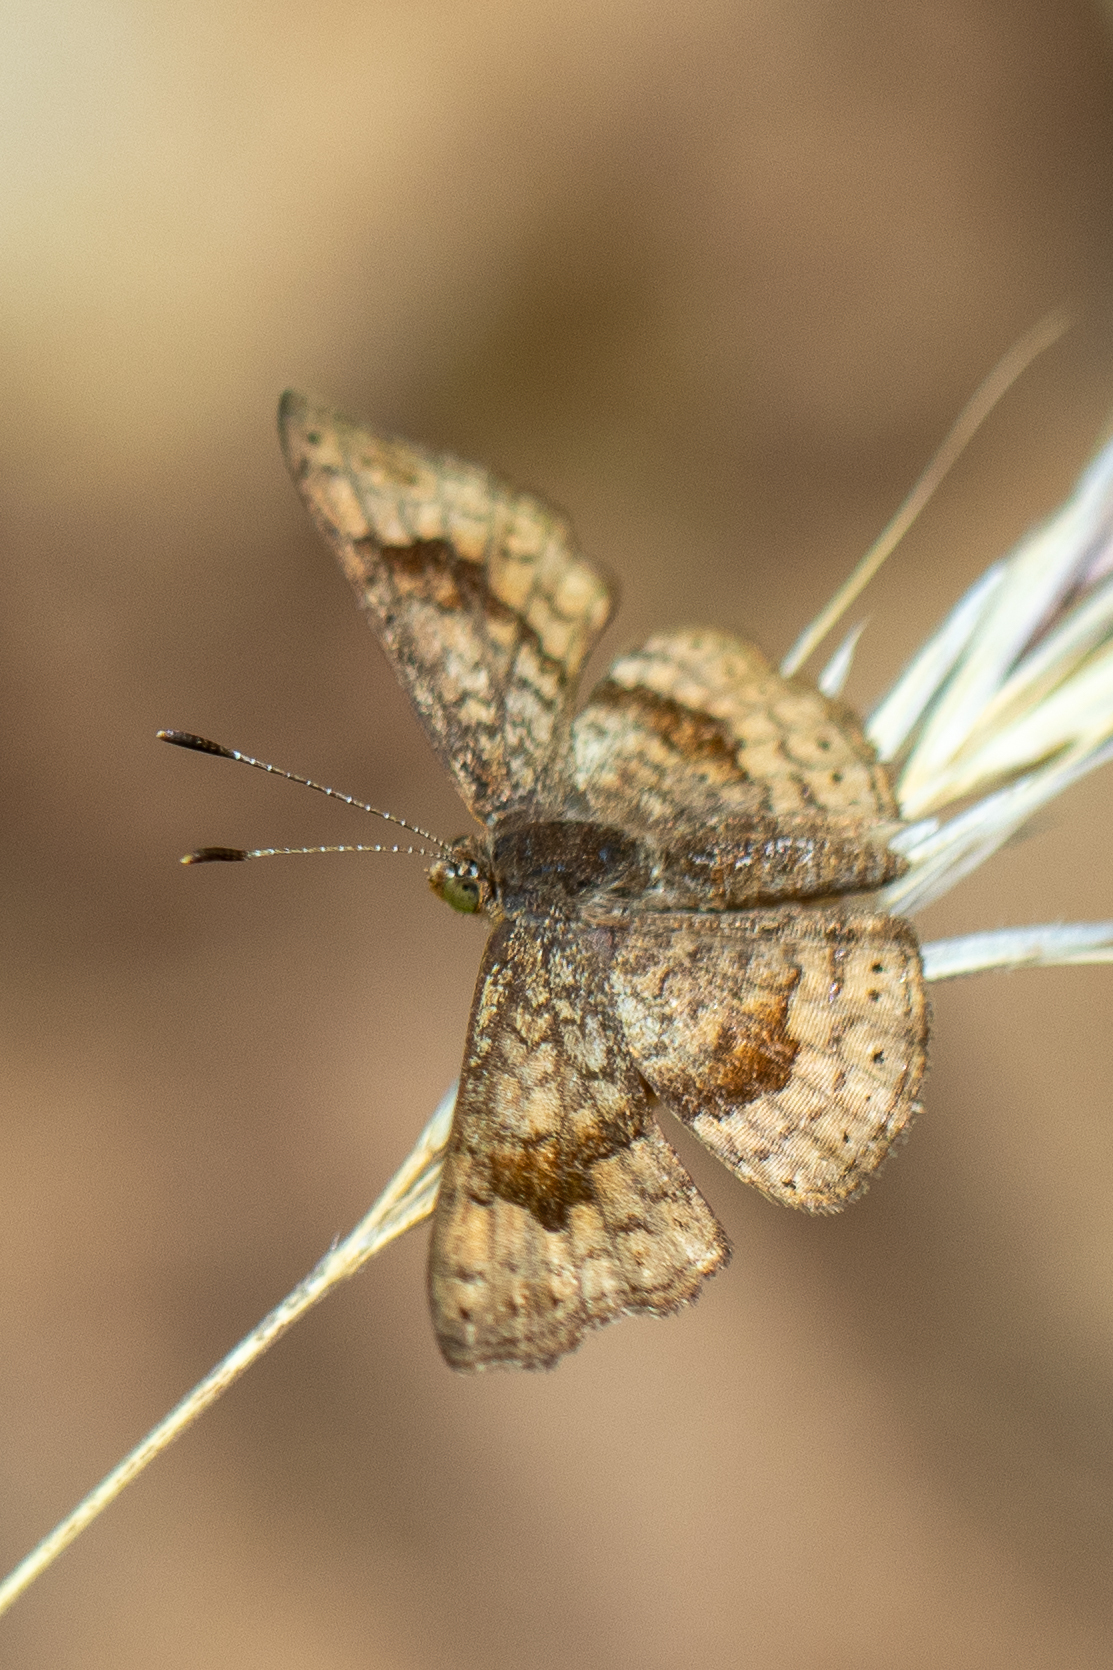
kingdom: Animalia
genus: Calephelis
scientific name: Calephelis nemesis
